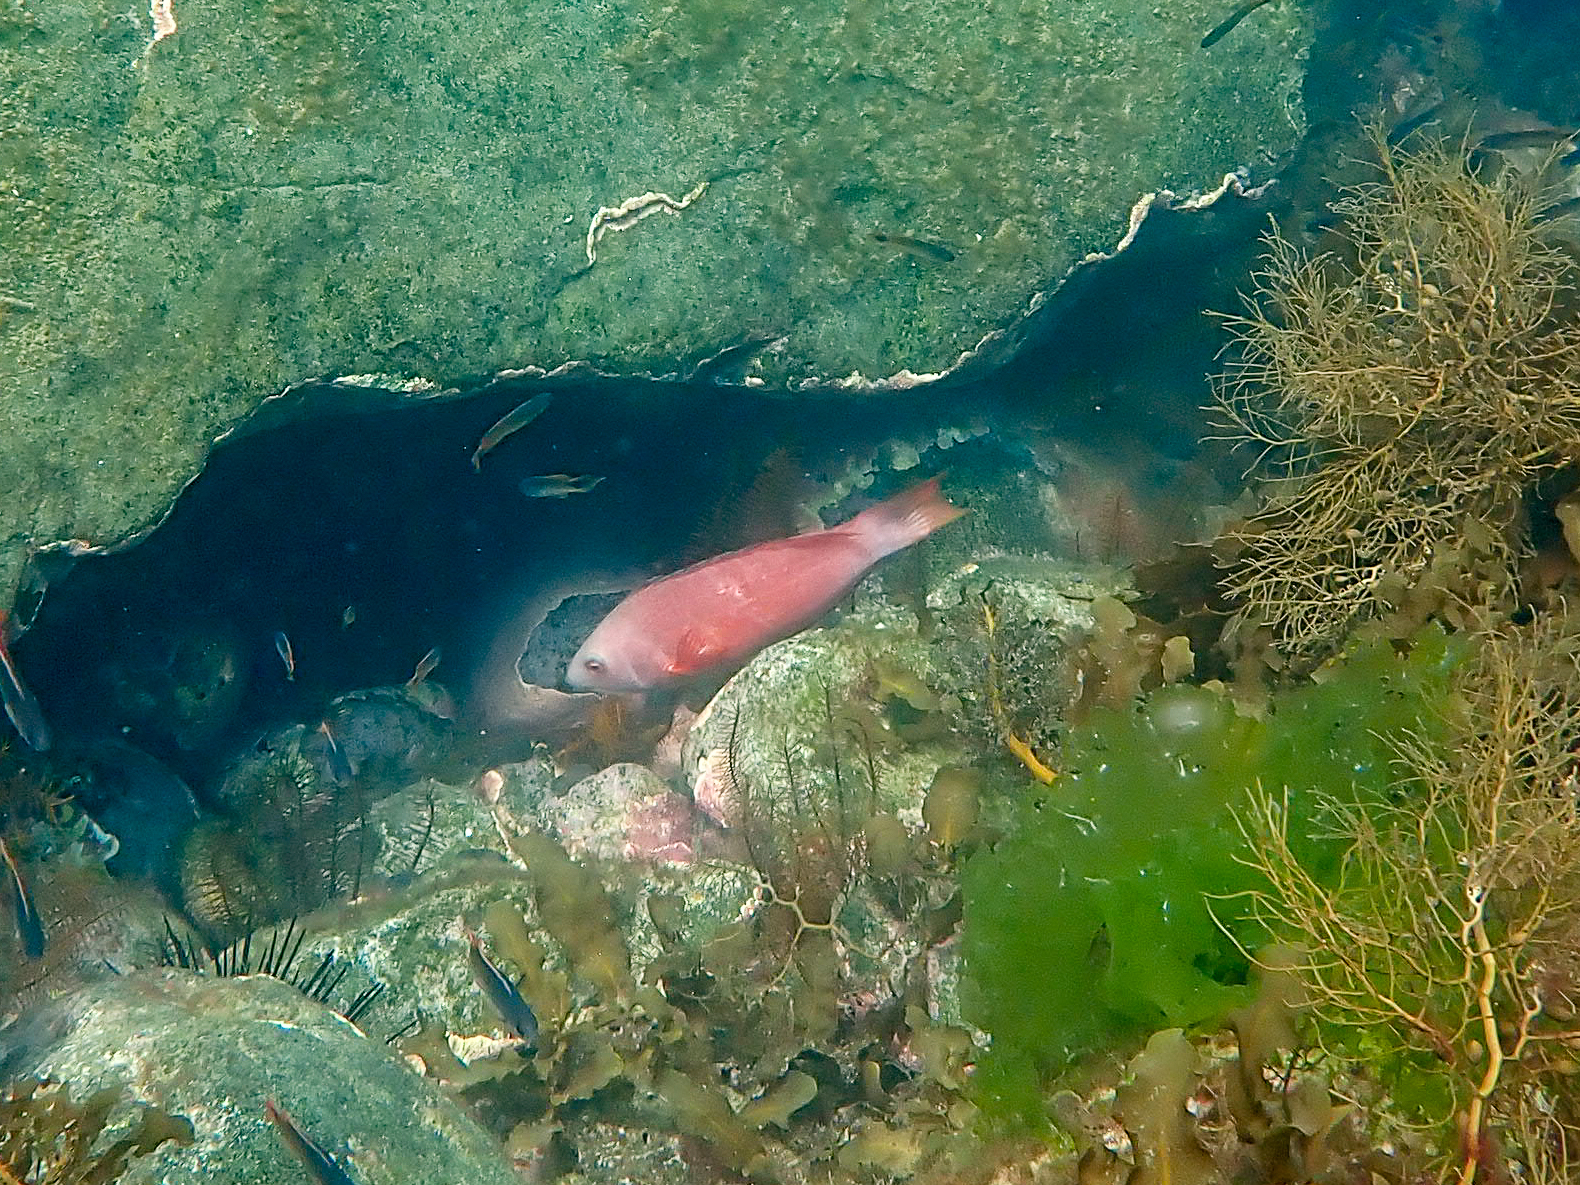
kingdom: Animalia
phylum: Chordata
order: Perciformes
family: Labridae
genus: Pseudolabrus
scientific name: Pseudolabrus rubicundus
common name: Rosy parrotfish
